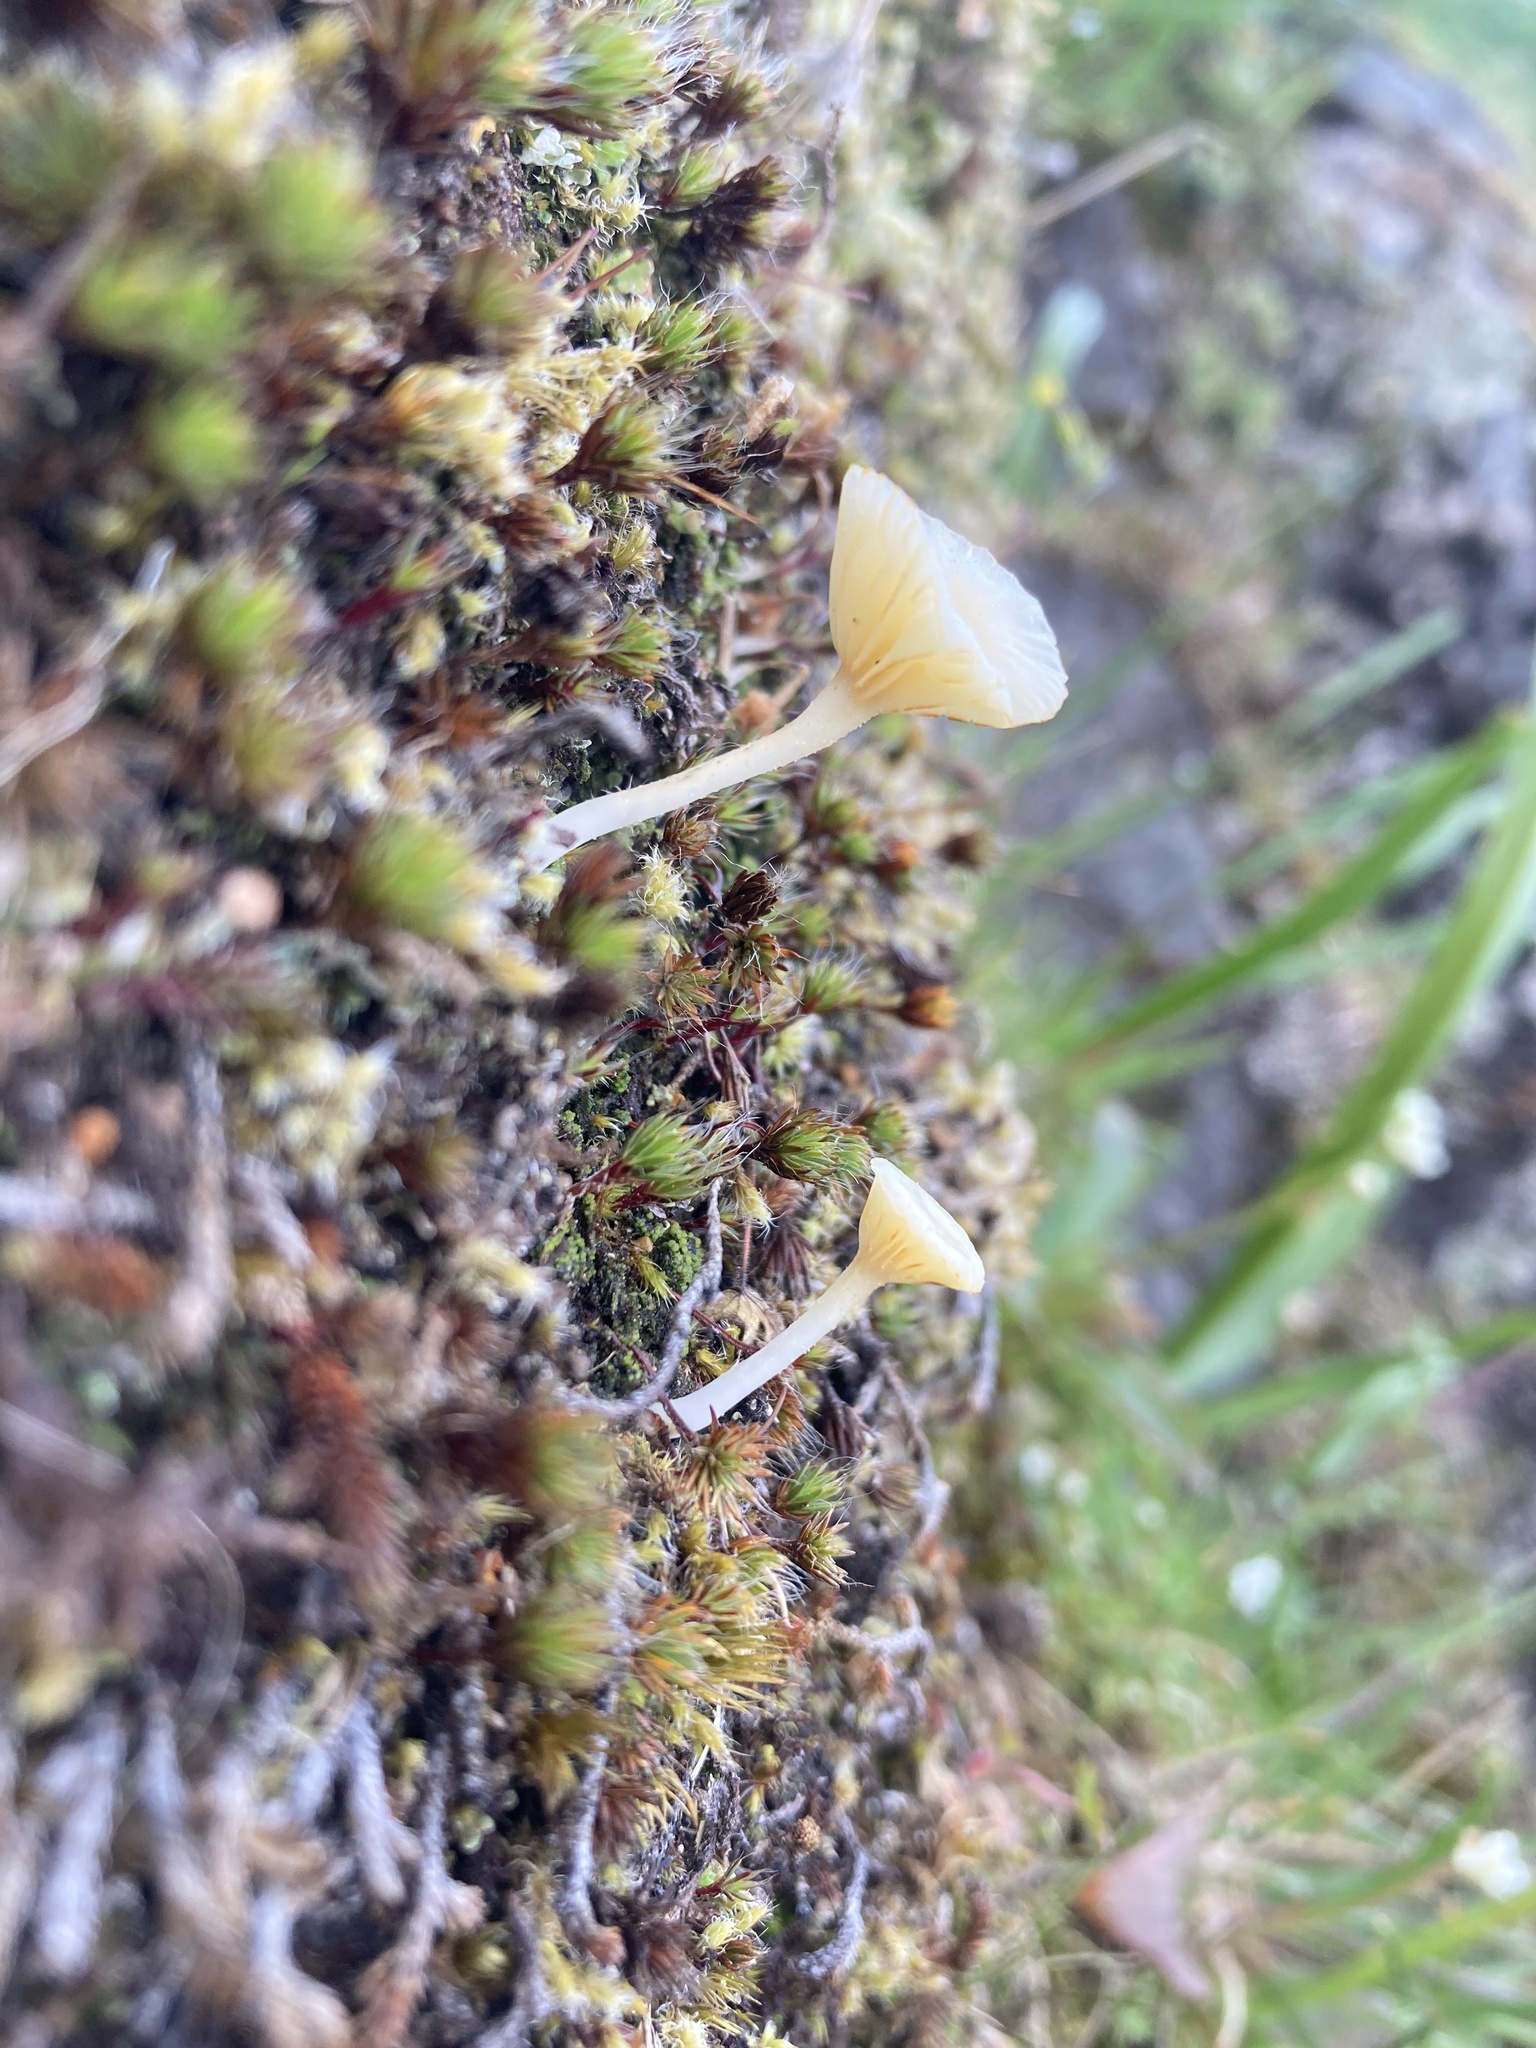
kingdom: Fungi
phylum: Basidiomycota
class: Agaricomycetes
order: Agaricales
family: Hygrophoraceae
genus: Lichenomphalia
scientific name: Lichenomphalia
